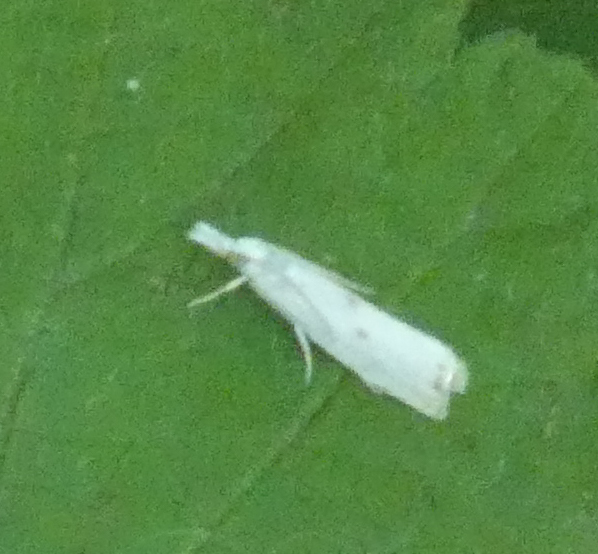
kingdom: Animalia
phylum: Arthropoda
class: Insecta
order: Lepidoptera
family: Crambidae
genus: Microcrambus
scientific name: Microcrambus biguttellus
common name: Gold-stripe grass-veneer moth
